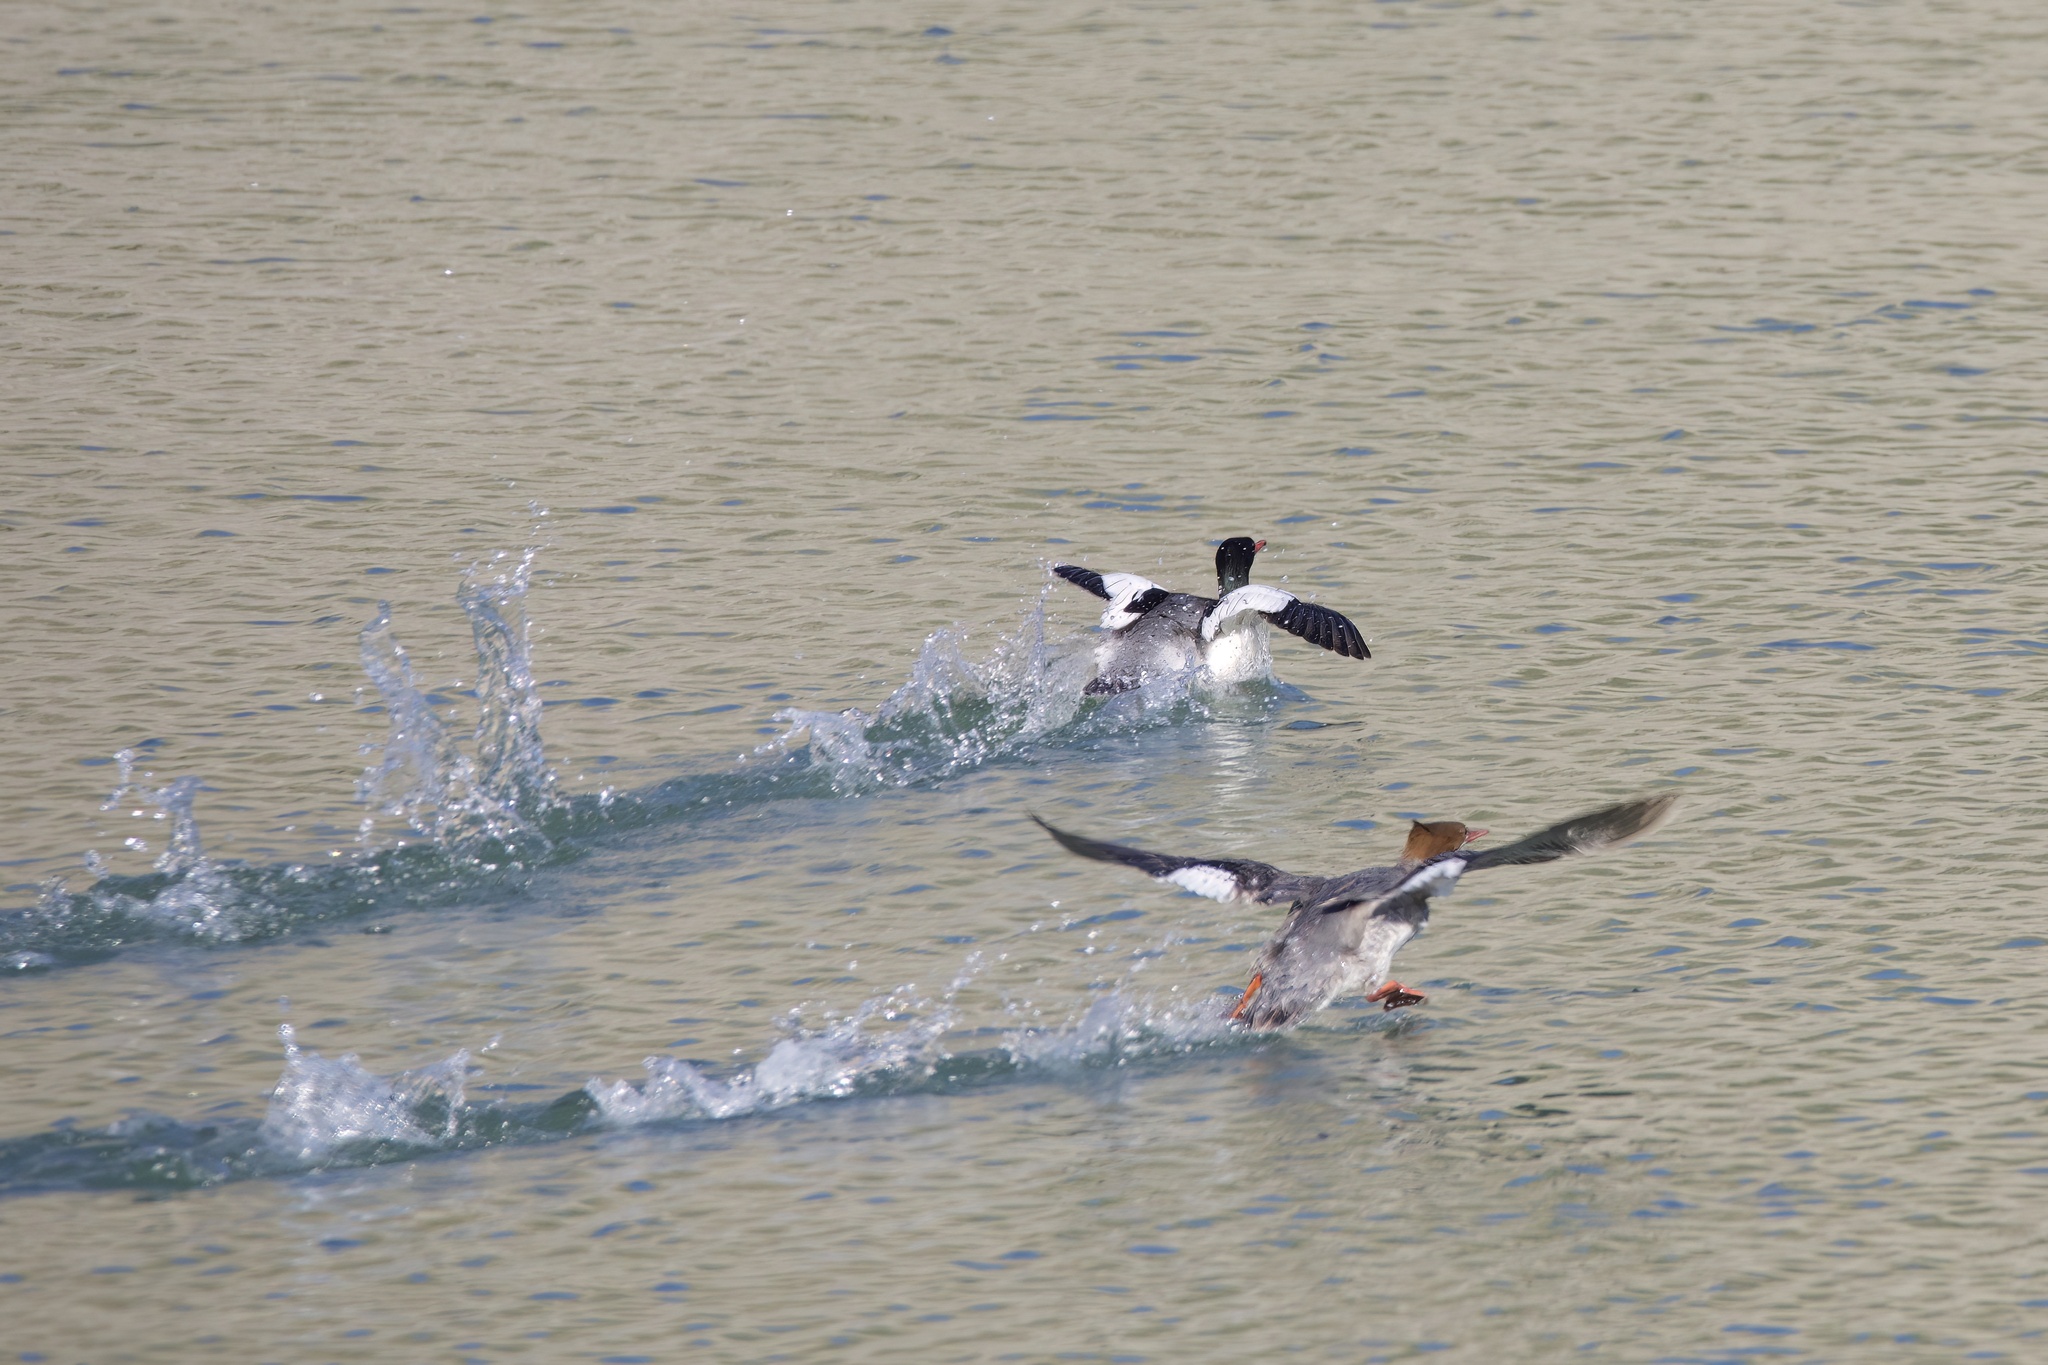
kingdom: Animalia
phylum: Chordata
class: Aves
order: Anseriformes
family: Anatidae
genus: Mergus
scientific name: Mergus merganser
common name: Common merganser
